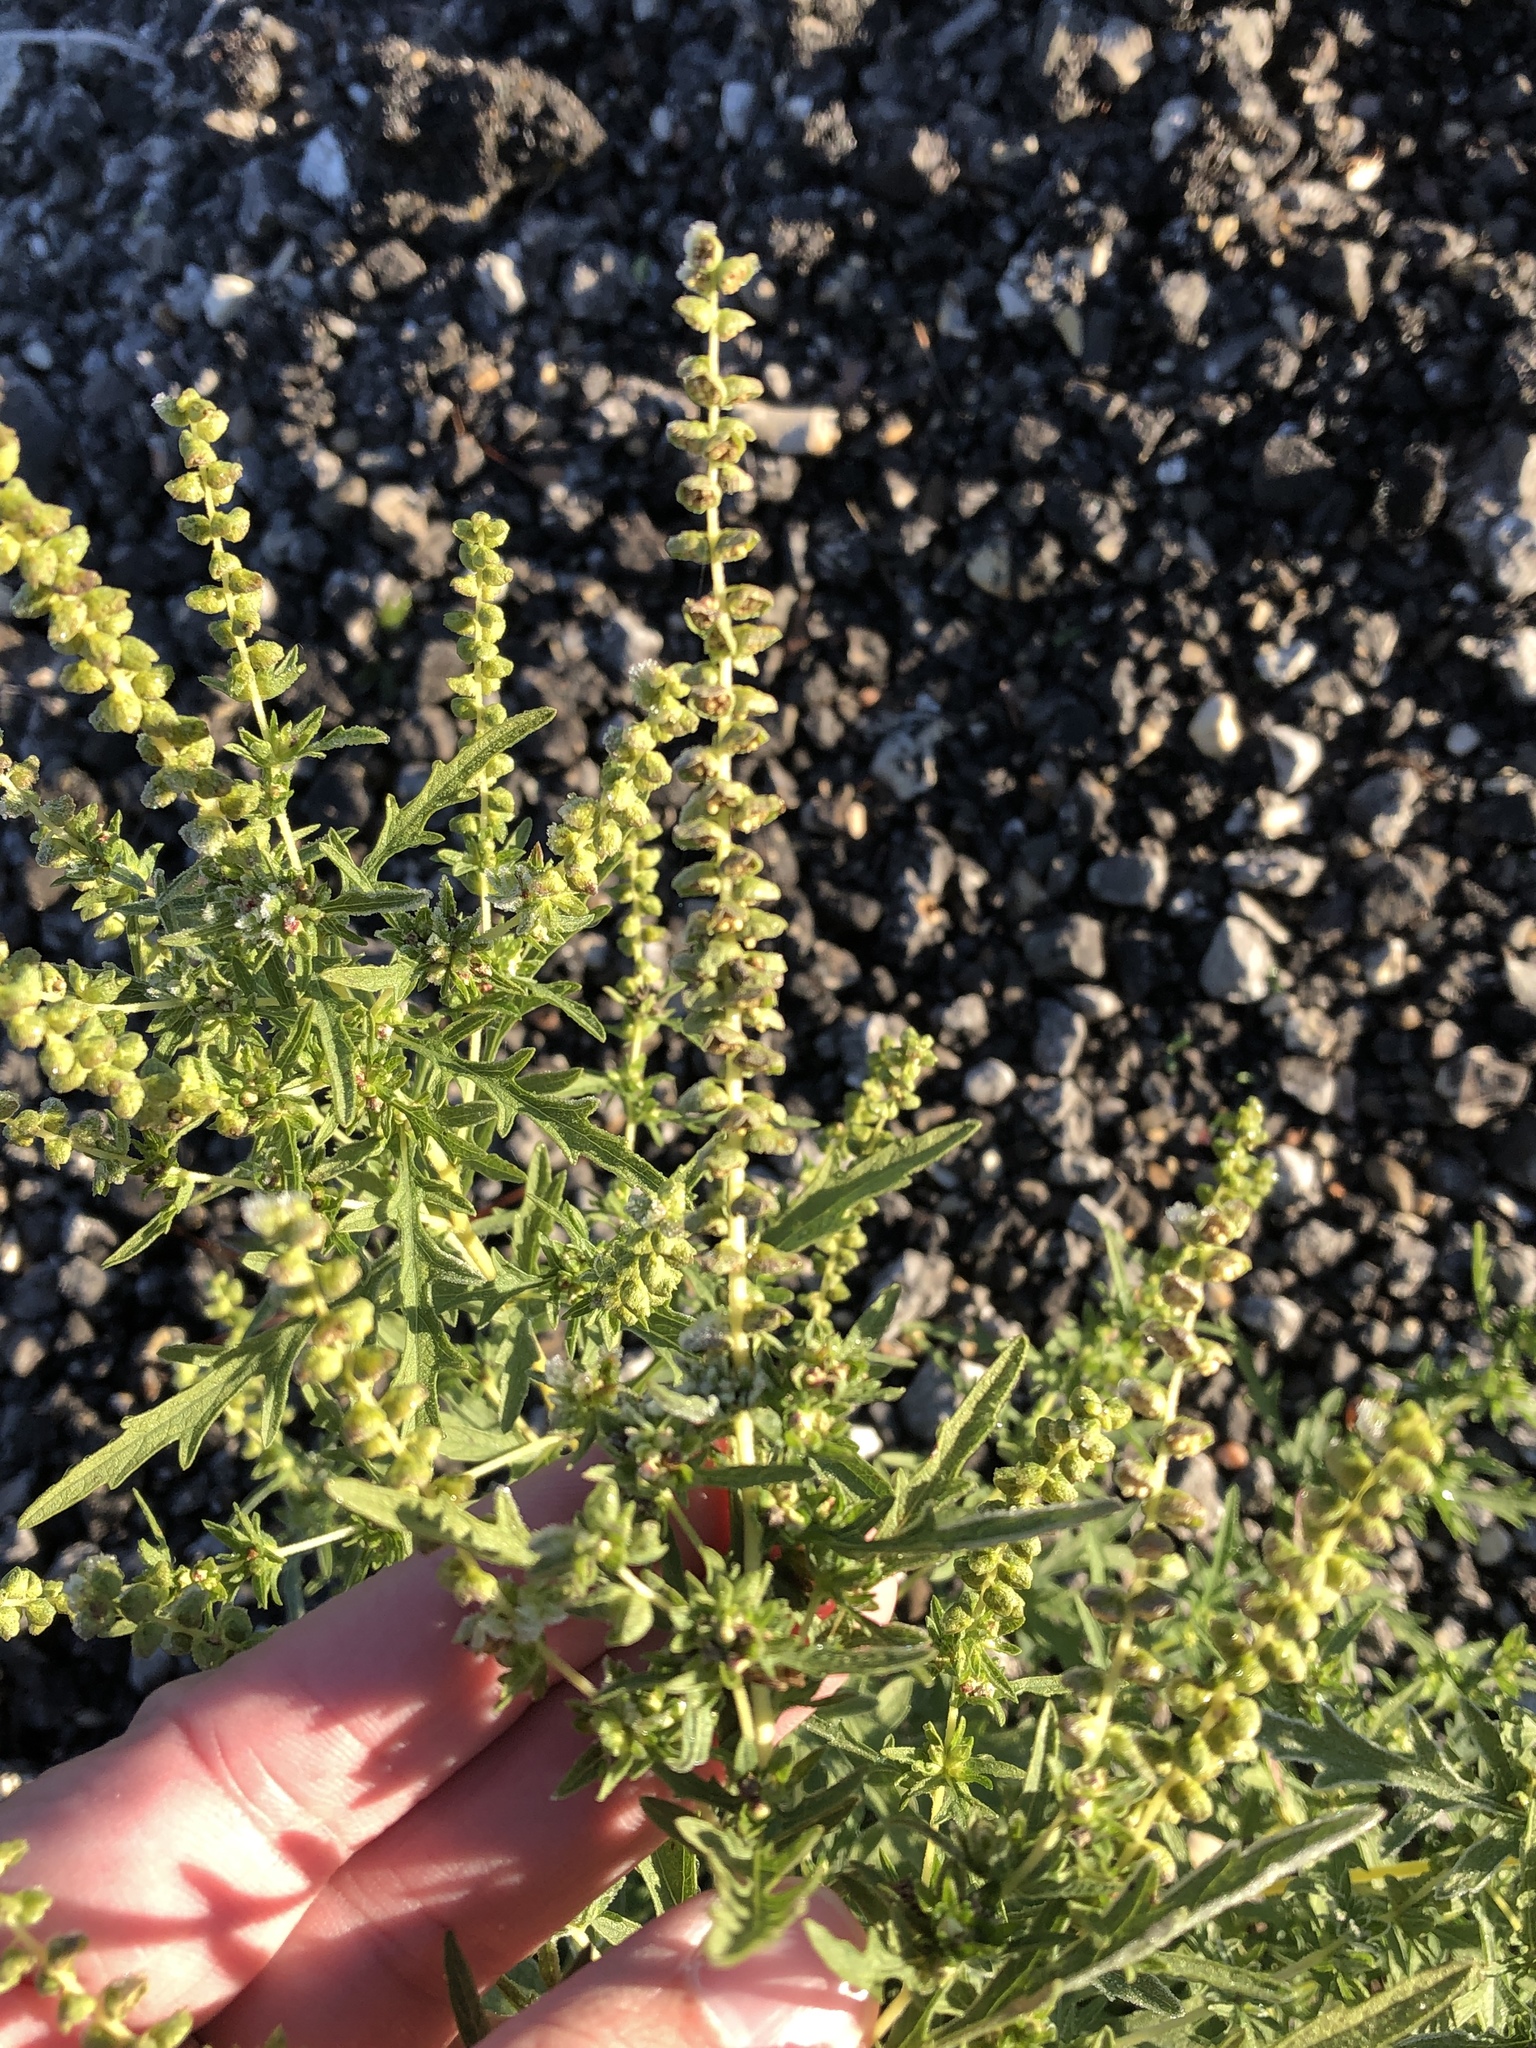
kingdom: Plantae
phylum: Tracheophyta
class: Magnoliopsida
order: Asterales
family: Asteraceae
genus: Ambrosia
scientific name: Ambrosia psilostachya
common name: Perennial ragweed
